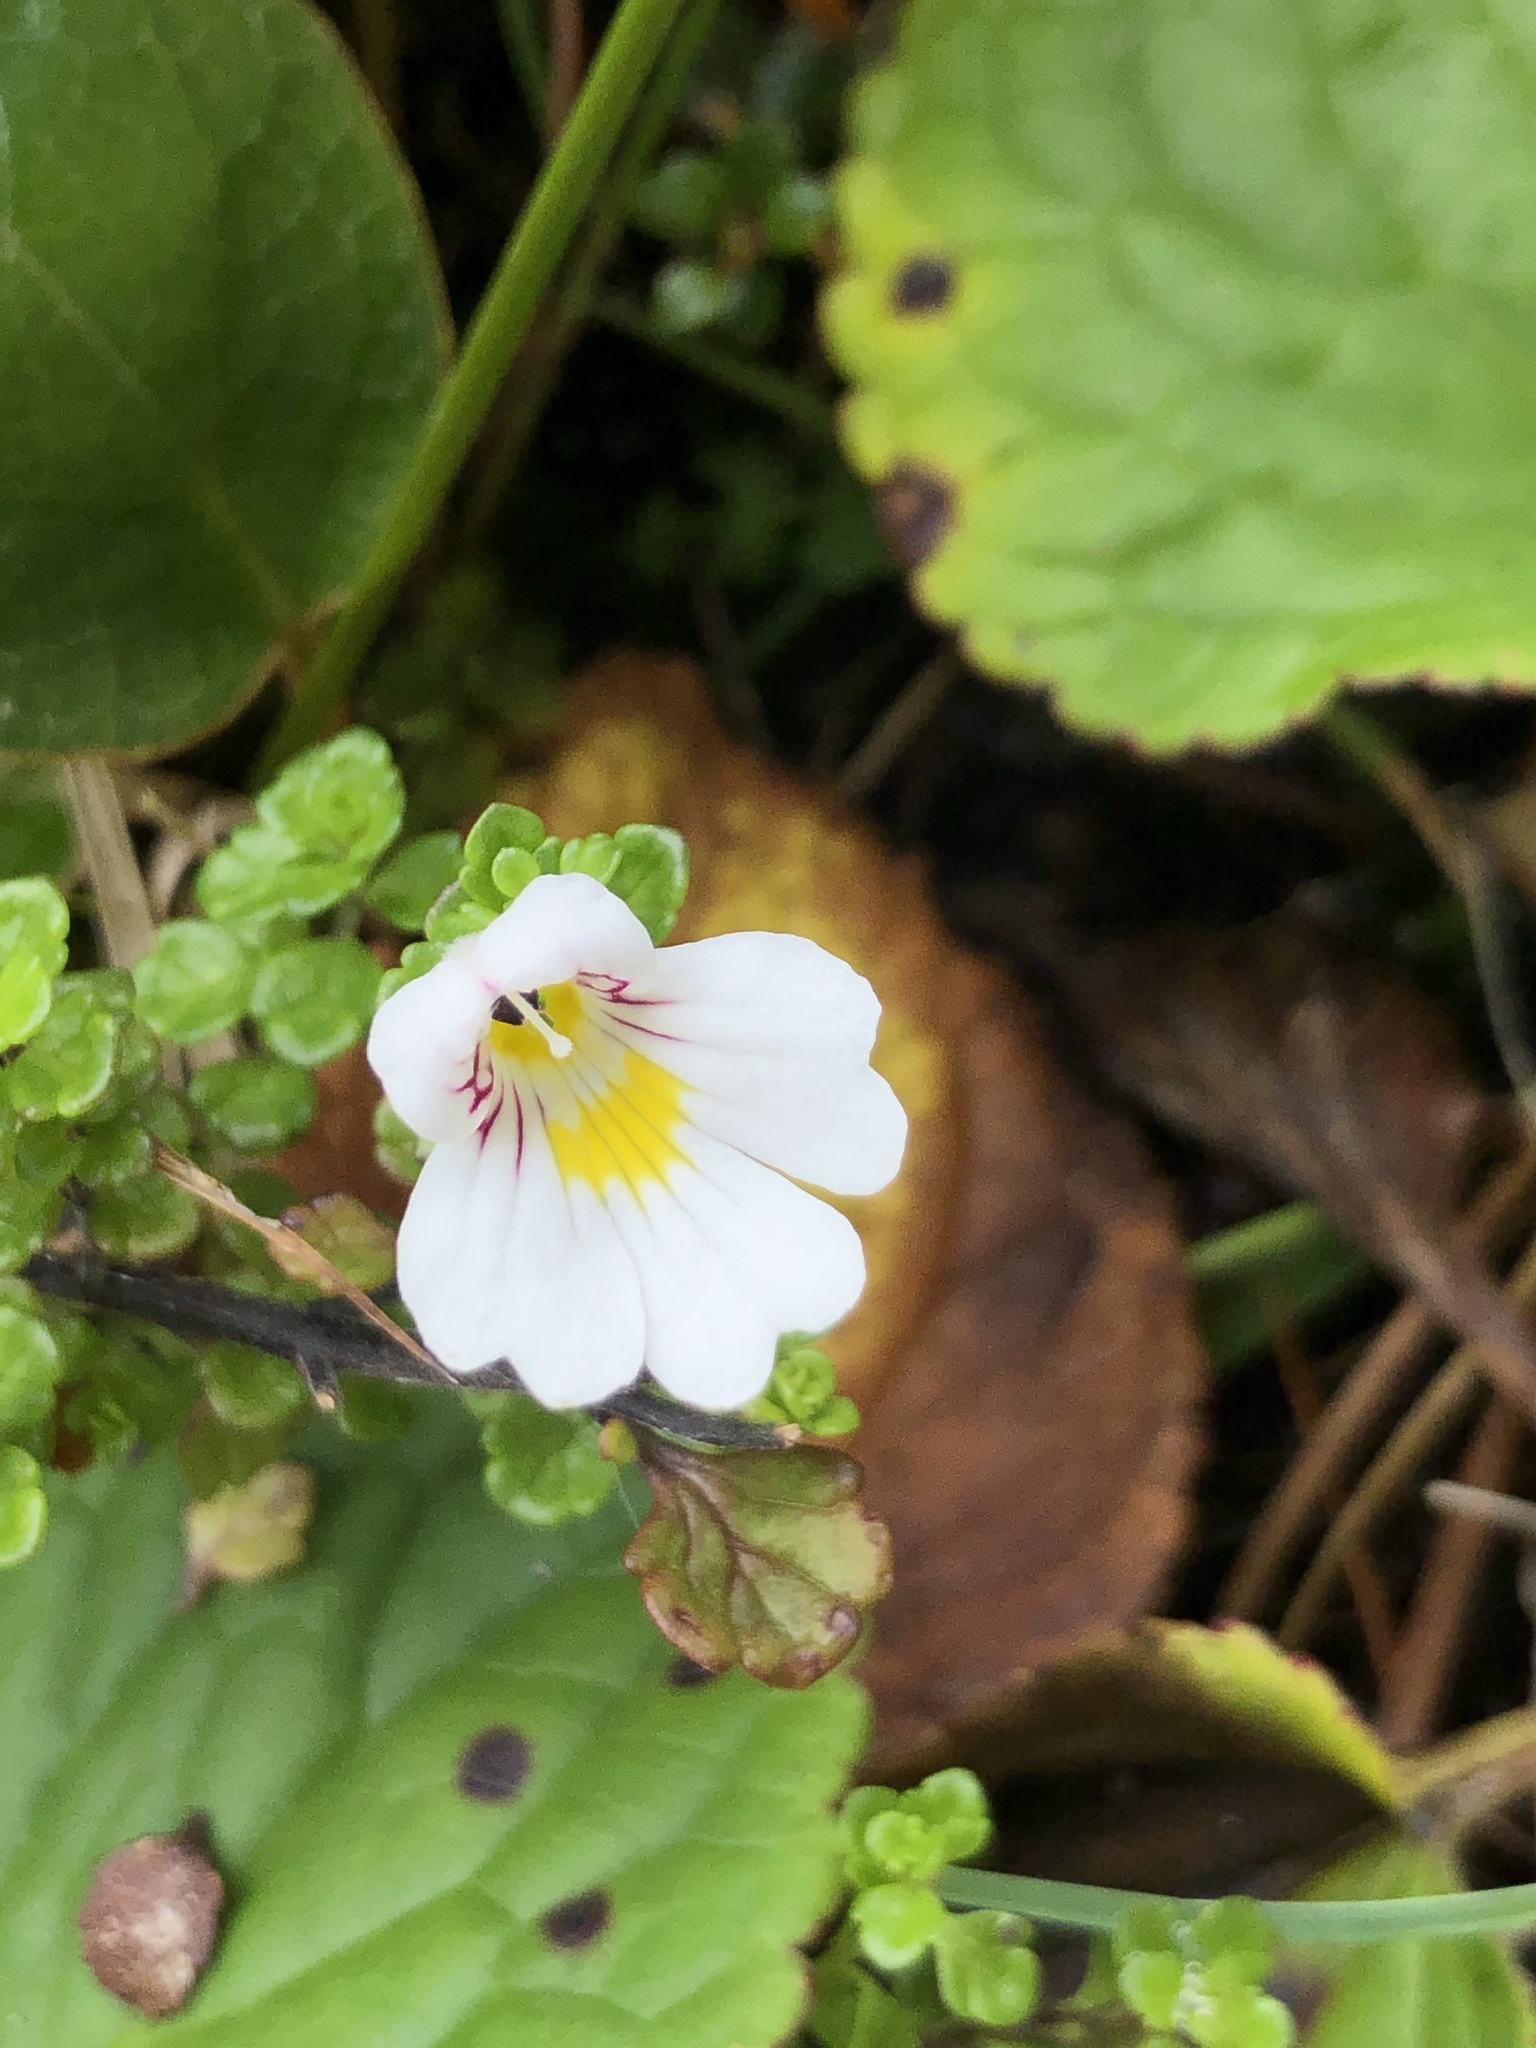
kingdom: Plantae
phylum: Tracheophyta
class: Magnoliopsida
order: Lamiales
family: Orobanchaceae
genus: Euphrasia
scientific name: Euphrasia cuneata
